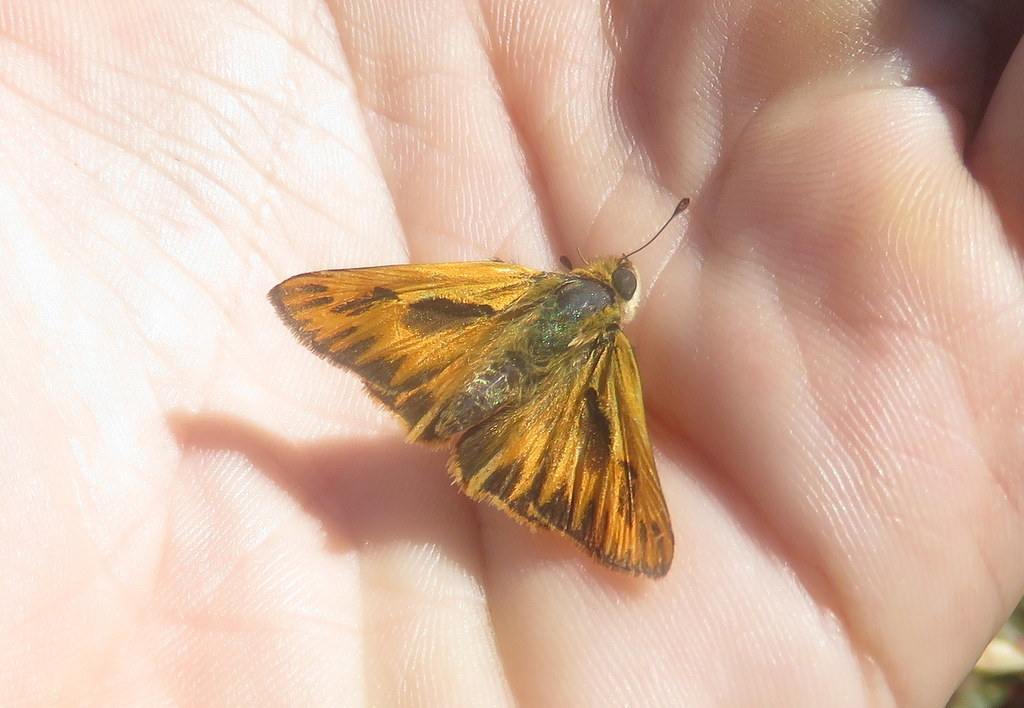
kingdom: Animalia
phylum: Arthropoda
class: Insecta
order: Lepidoptera
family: Hesperiidae
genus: Hylephila
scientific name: Hylephila phyleus
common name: Fiery skipper
